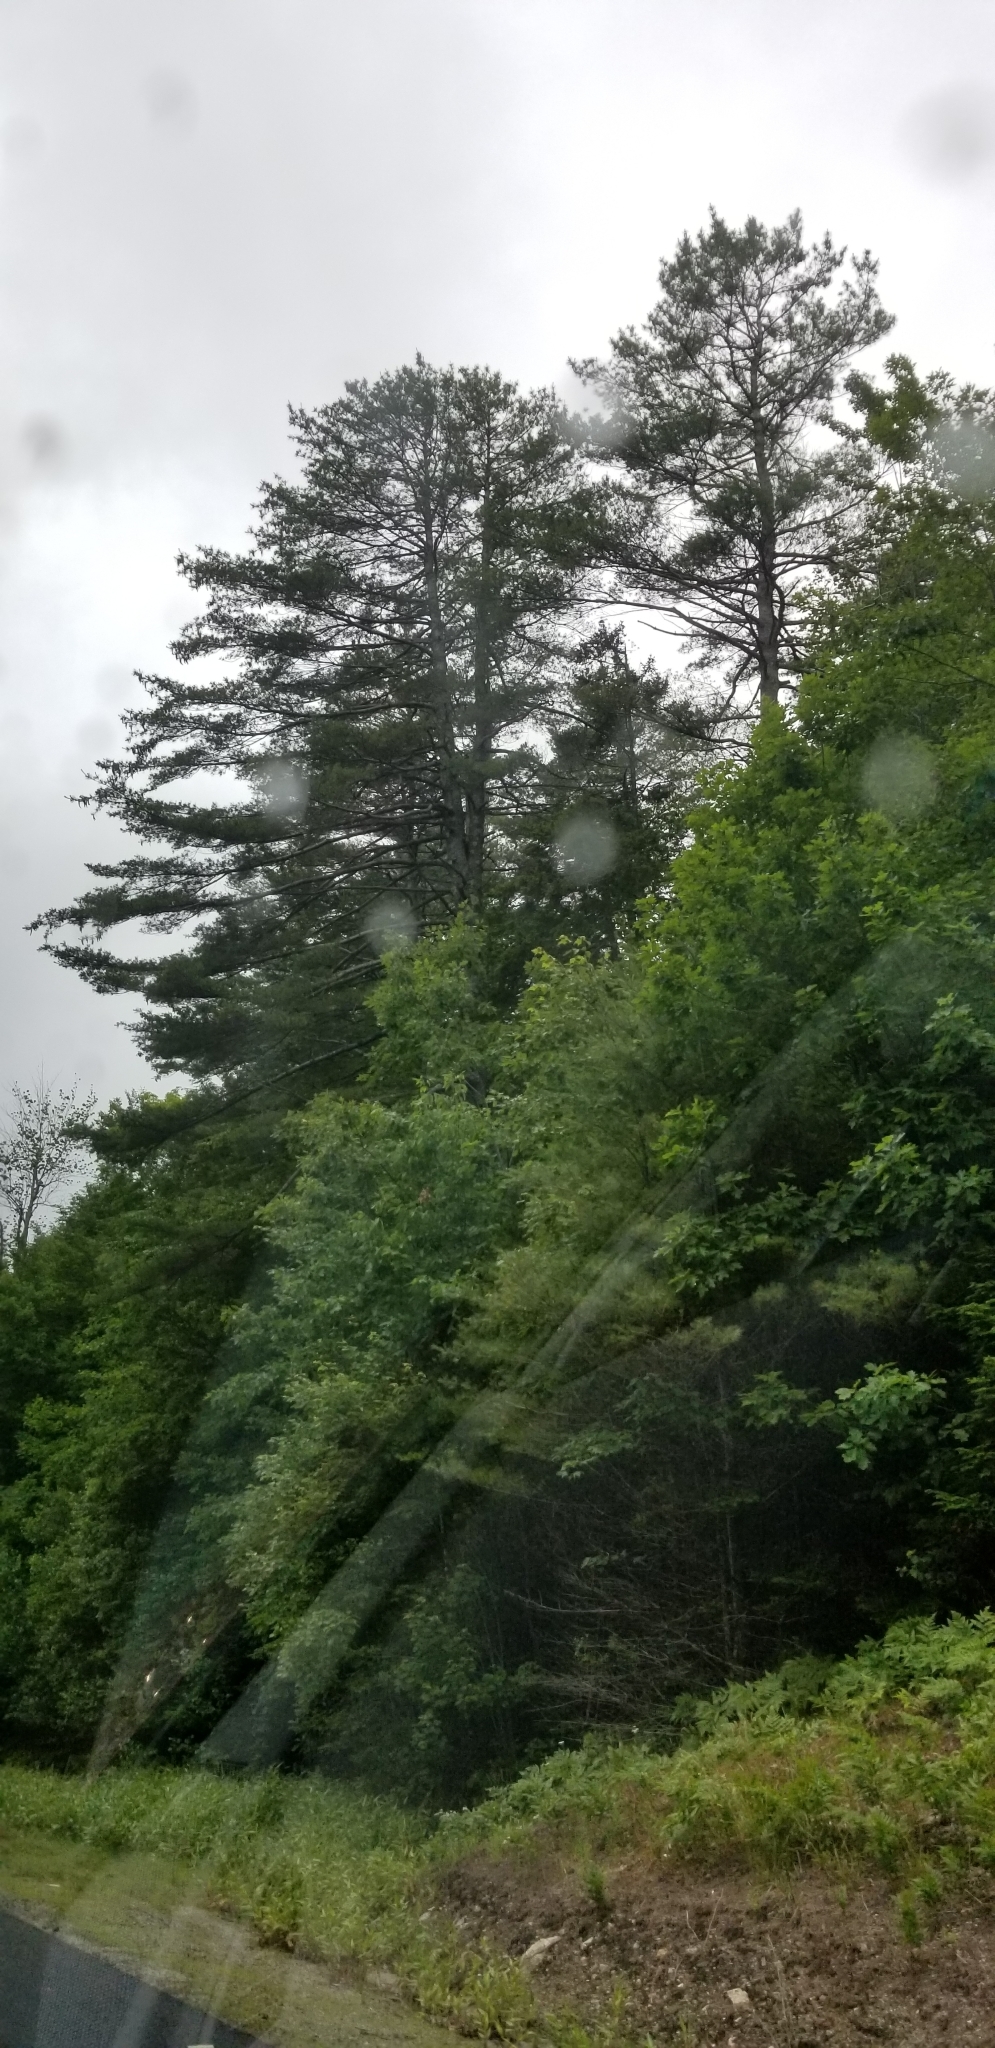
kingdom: Plantae
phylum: Tracheophyta
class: Pinopsida
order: Pinales
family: Pinaceae
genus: Pinus
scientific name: Pinus strobus
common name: Weymouth pine
